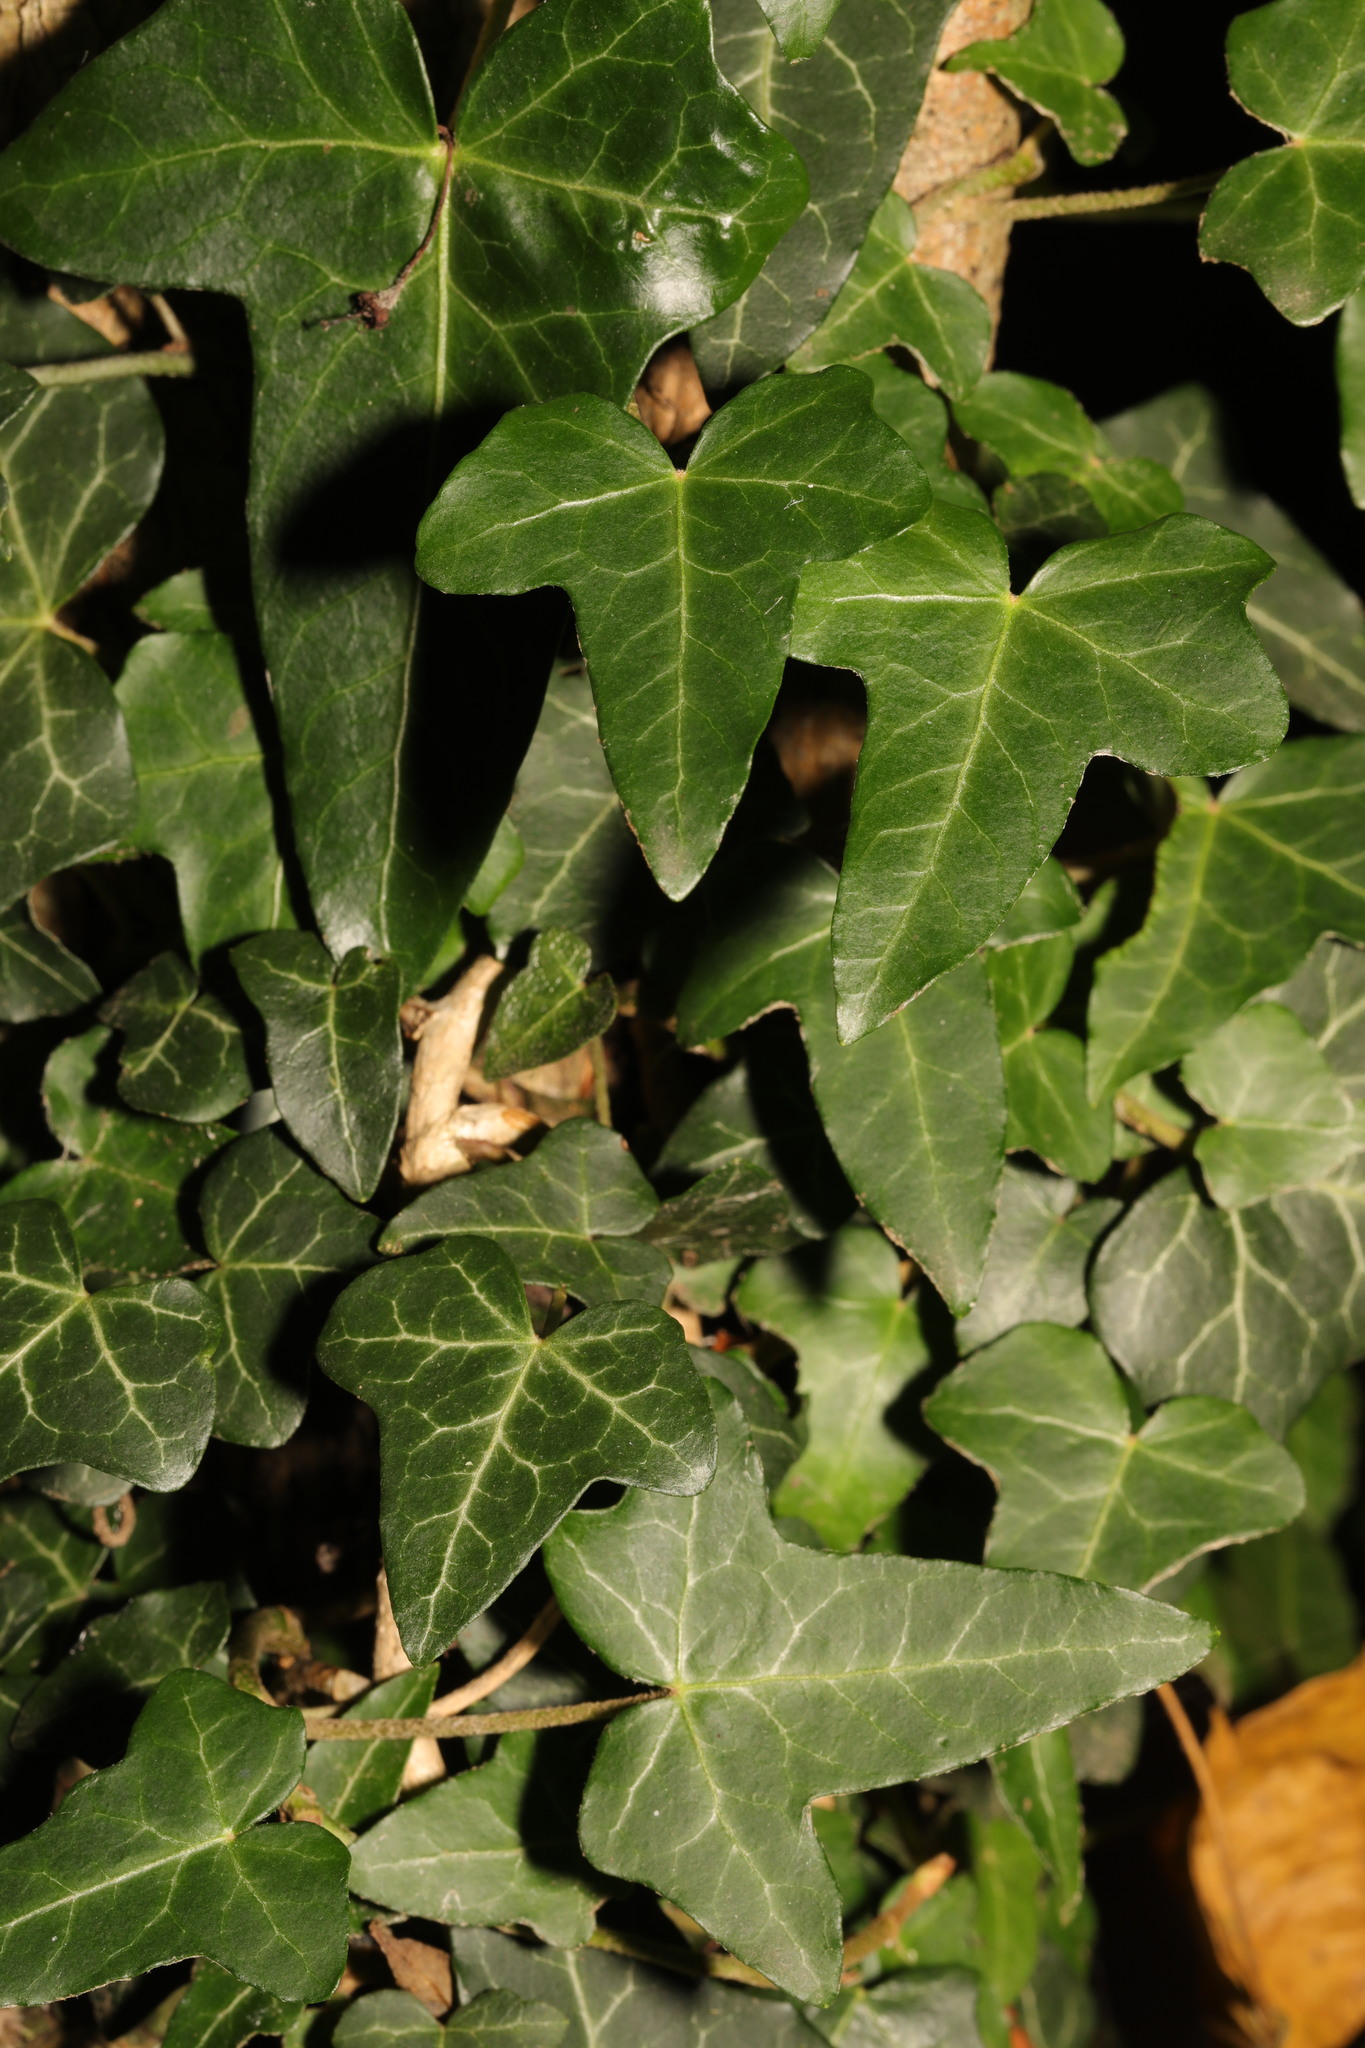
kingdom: Plantae
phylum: Tracheophyta
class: Magnoliopsida
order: Apiales
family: Araliaceae
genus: Hedera
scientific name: Hedera helix
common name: Ivy
